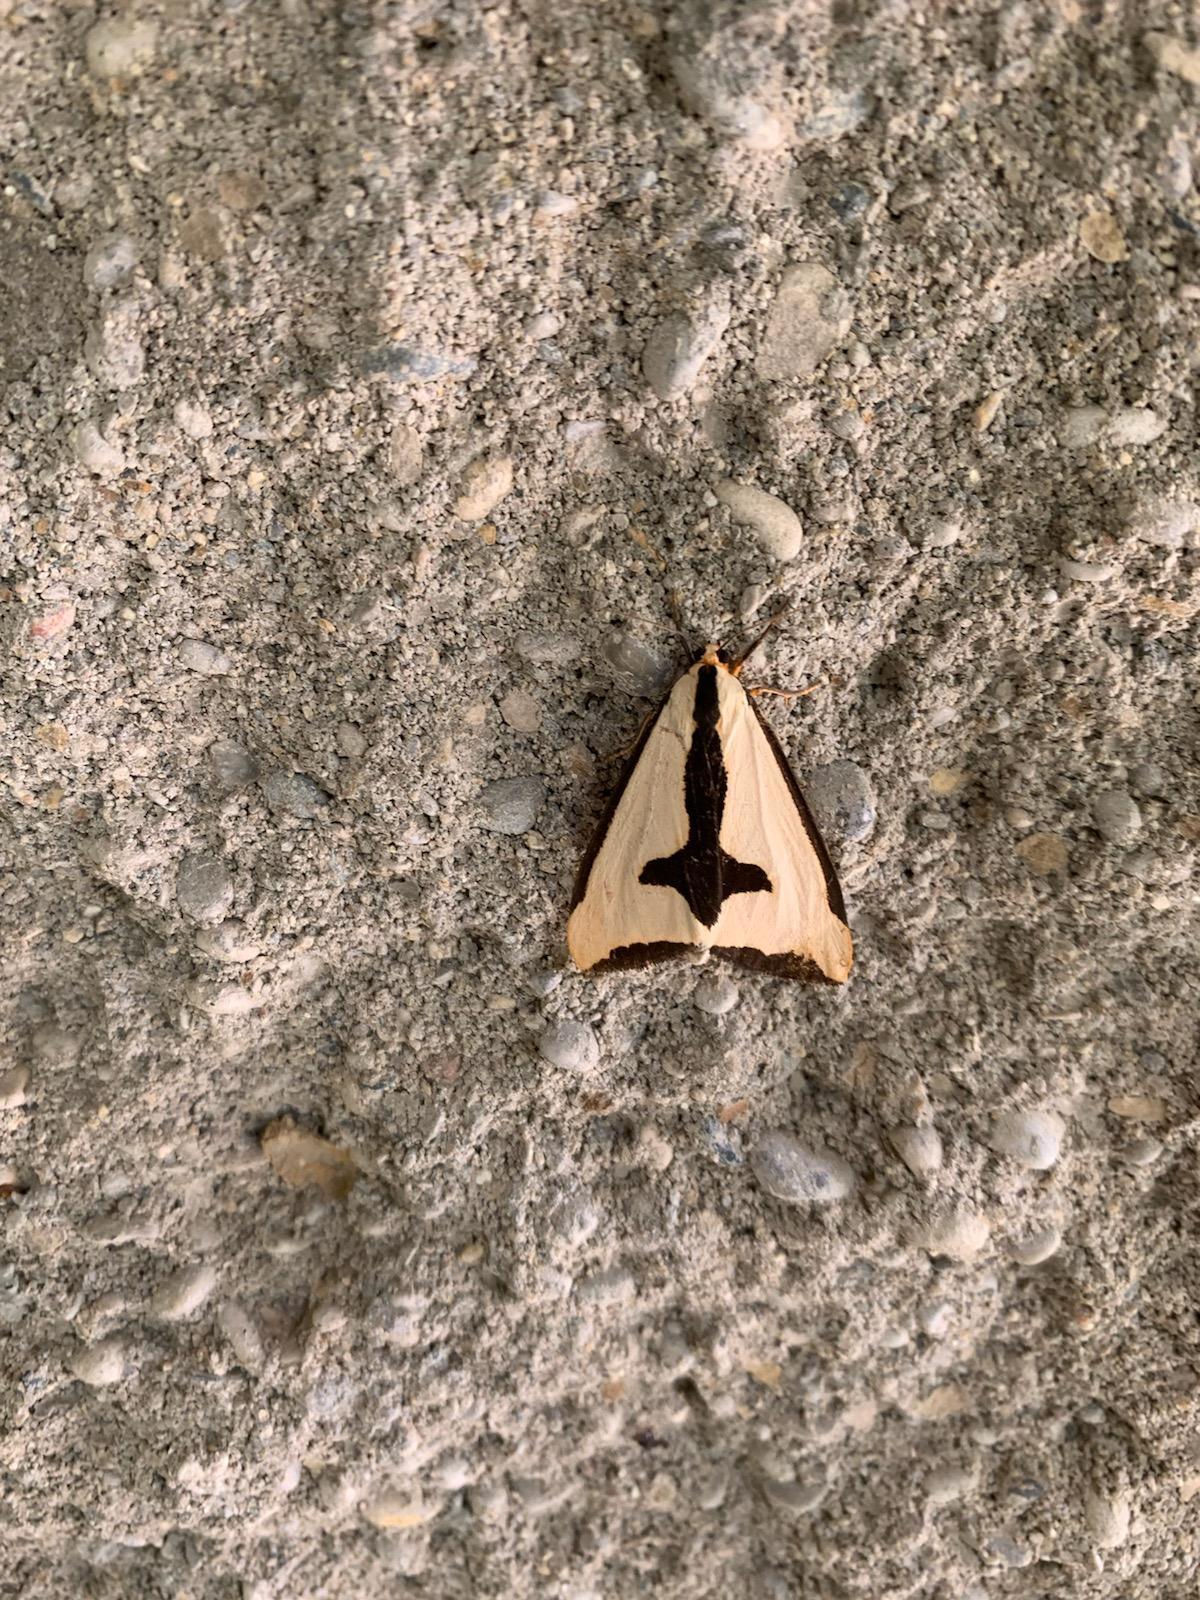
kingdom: Animalia
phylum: Arthropoda
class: Insecta
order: Lepidoptera
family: Erebidae
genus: Haploa
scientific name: Haploa clymene
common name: Clymene moth
